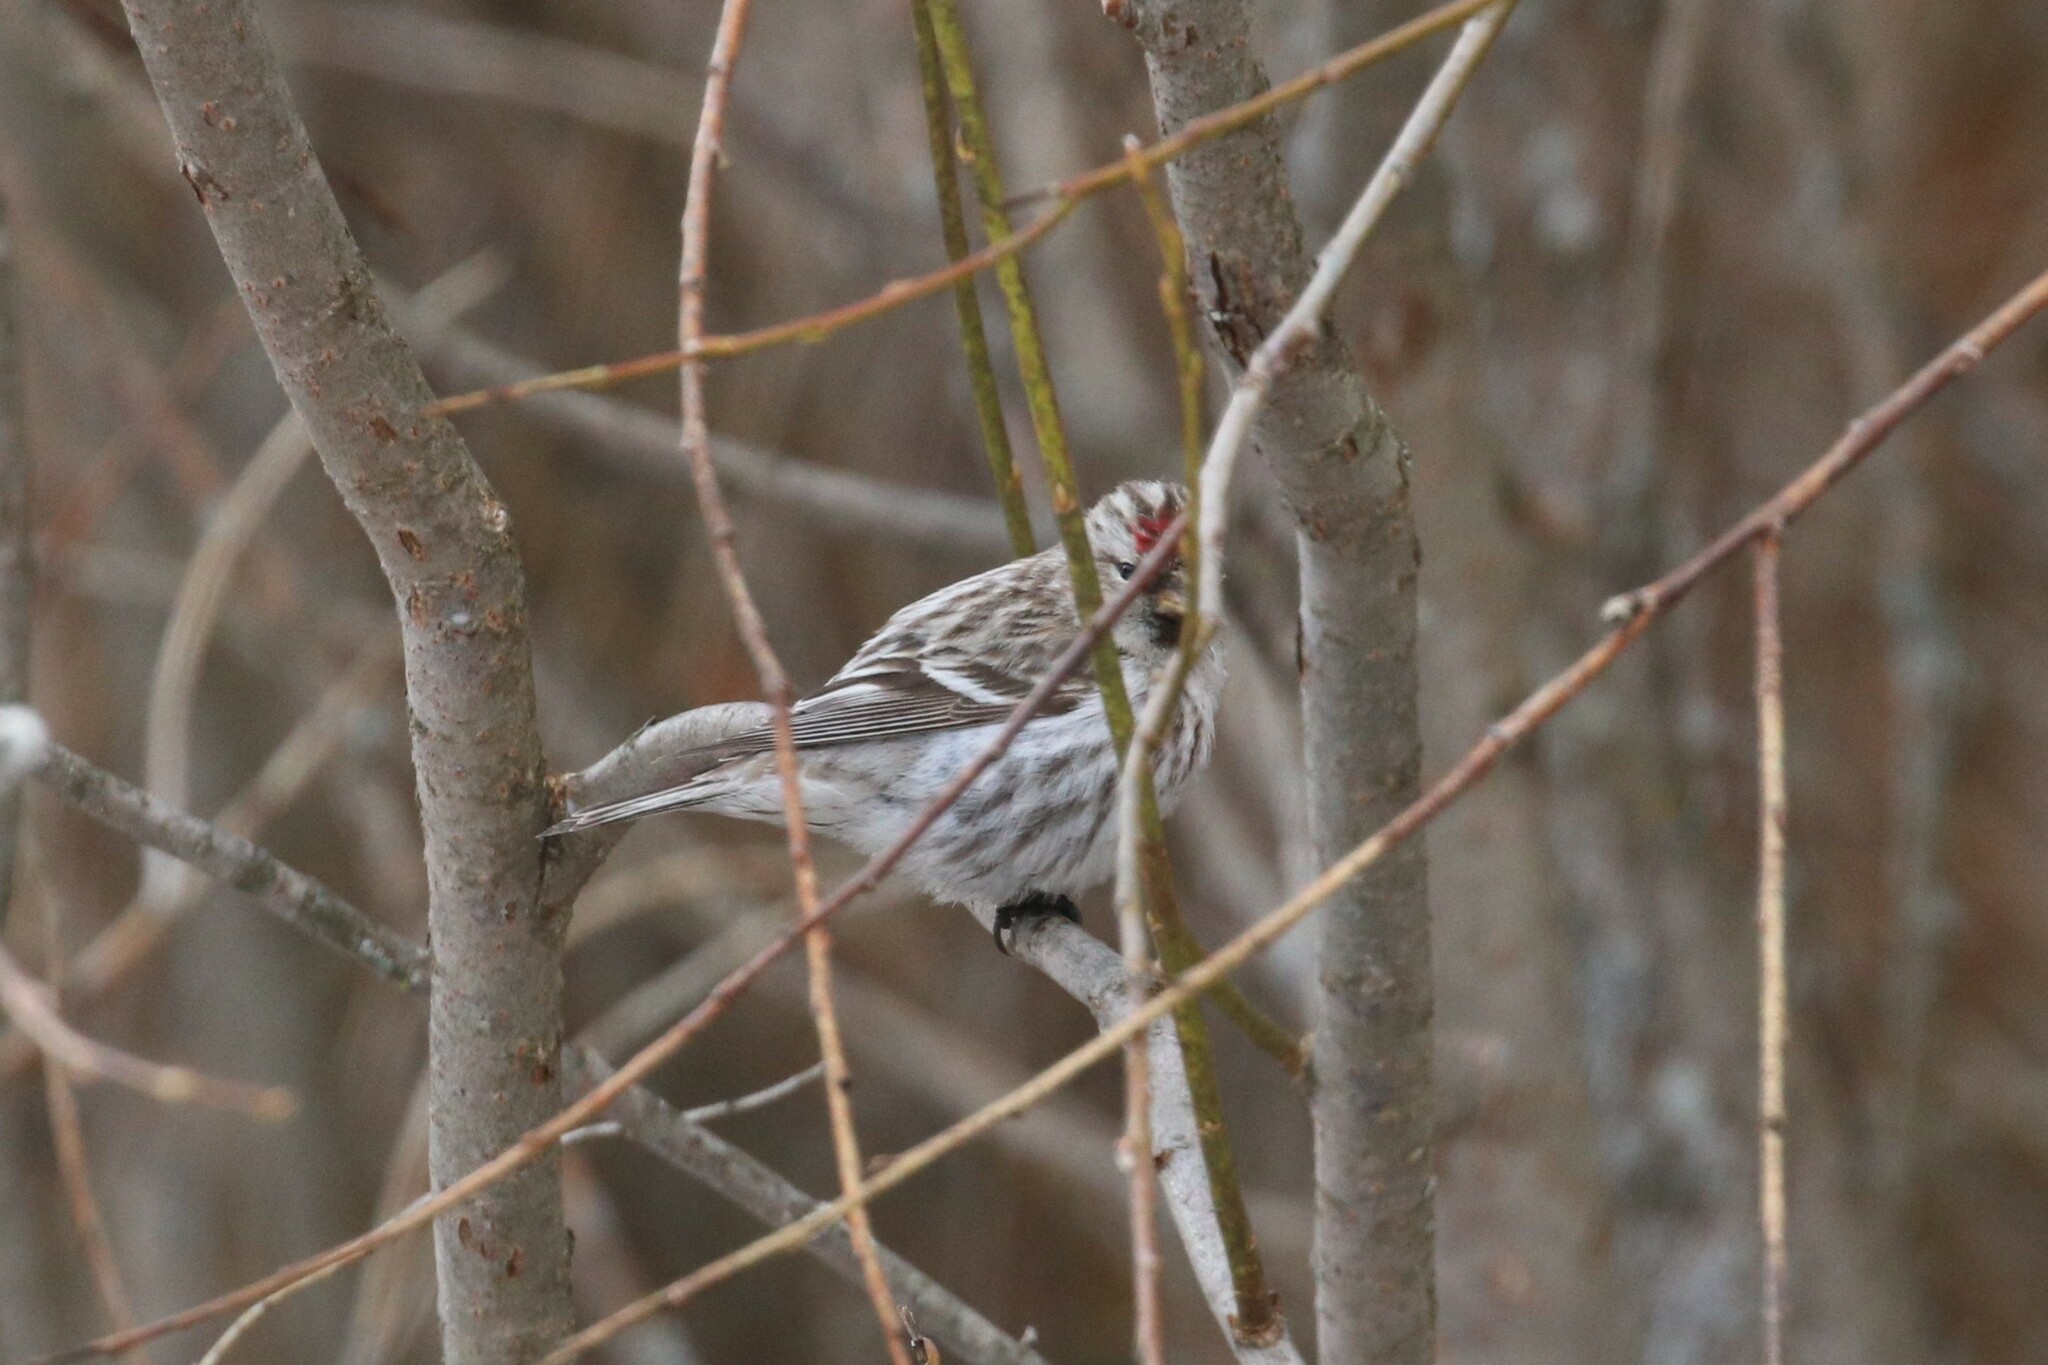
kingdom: Animalia
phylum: Chordata
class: Aves
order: Passeriformes
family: Fringillidae
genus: Acanthis
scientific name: Acanthis flammea
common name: Common redpoll
